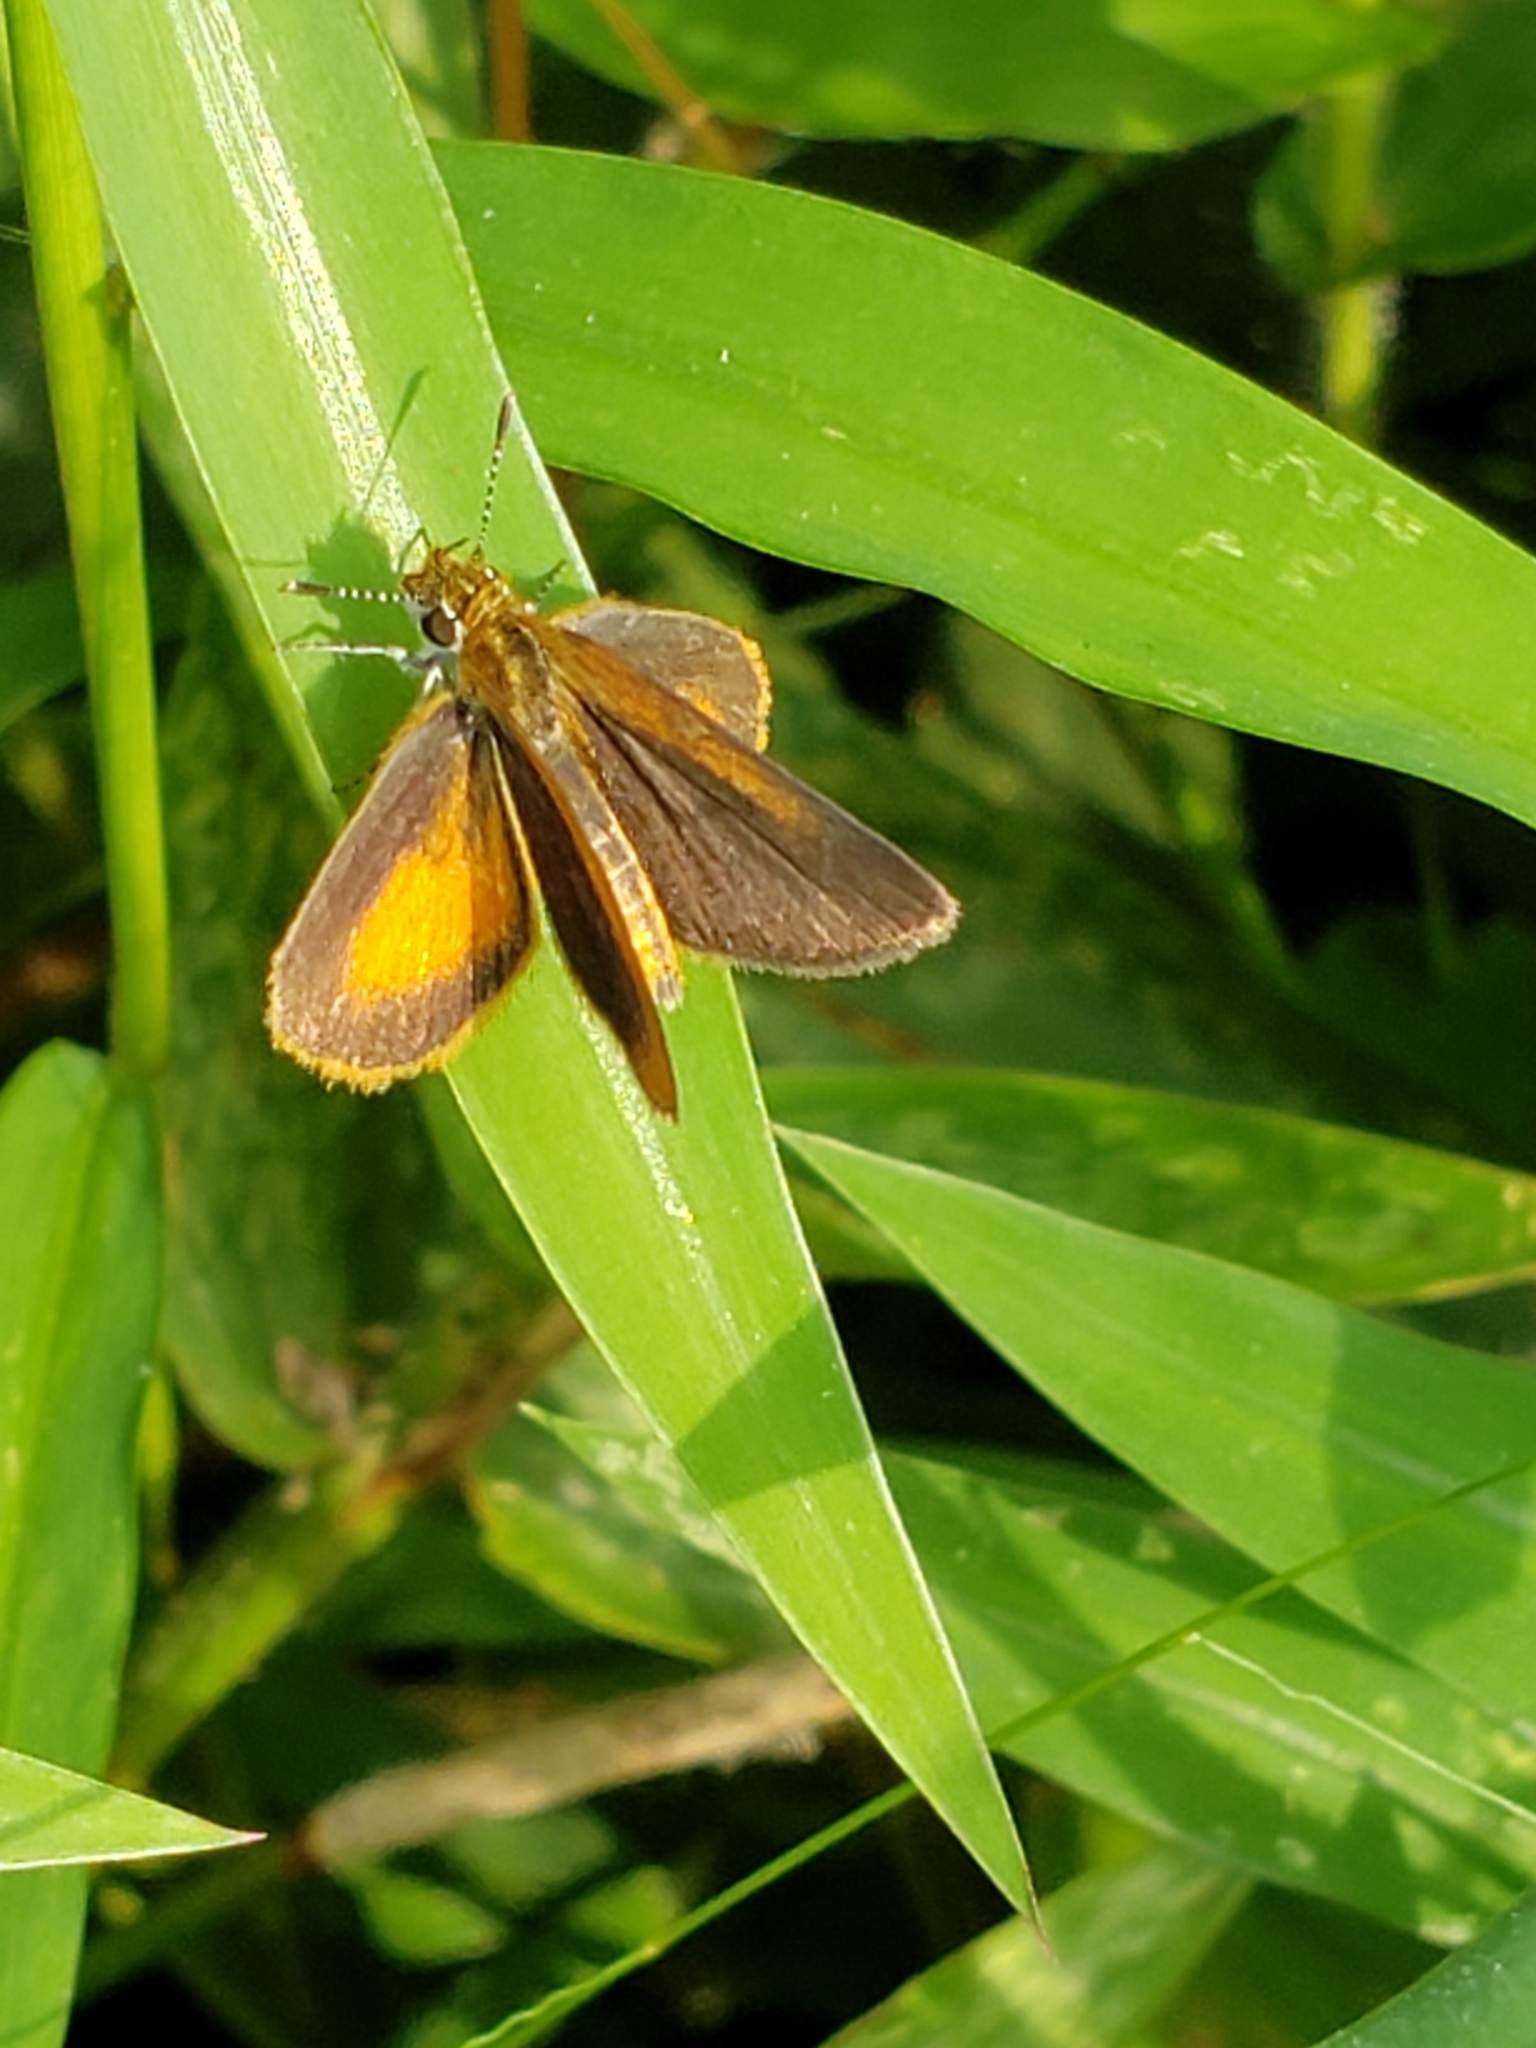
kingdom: Animalia
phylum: Arthropoda
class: Insecta
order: Lepidoptera
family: Hesperiidae
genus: Ancyloxypha
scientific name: Ancyloxypha numitor
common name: Least skipper
